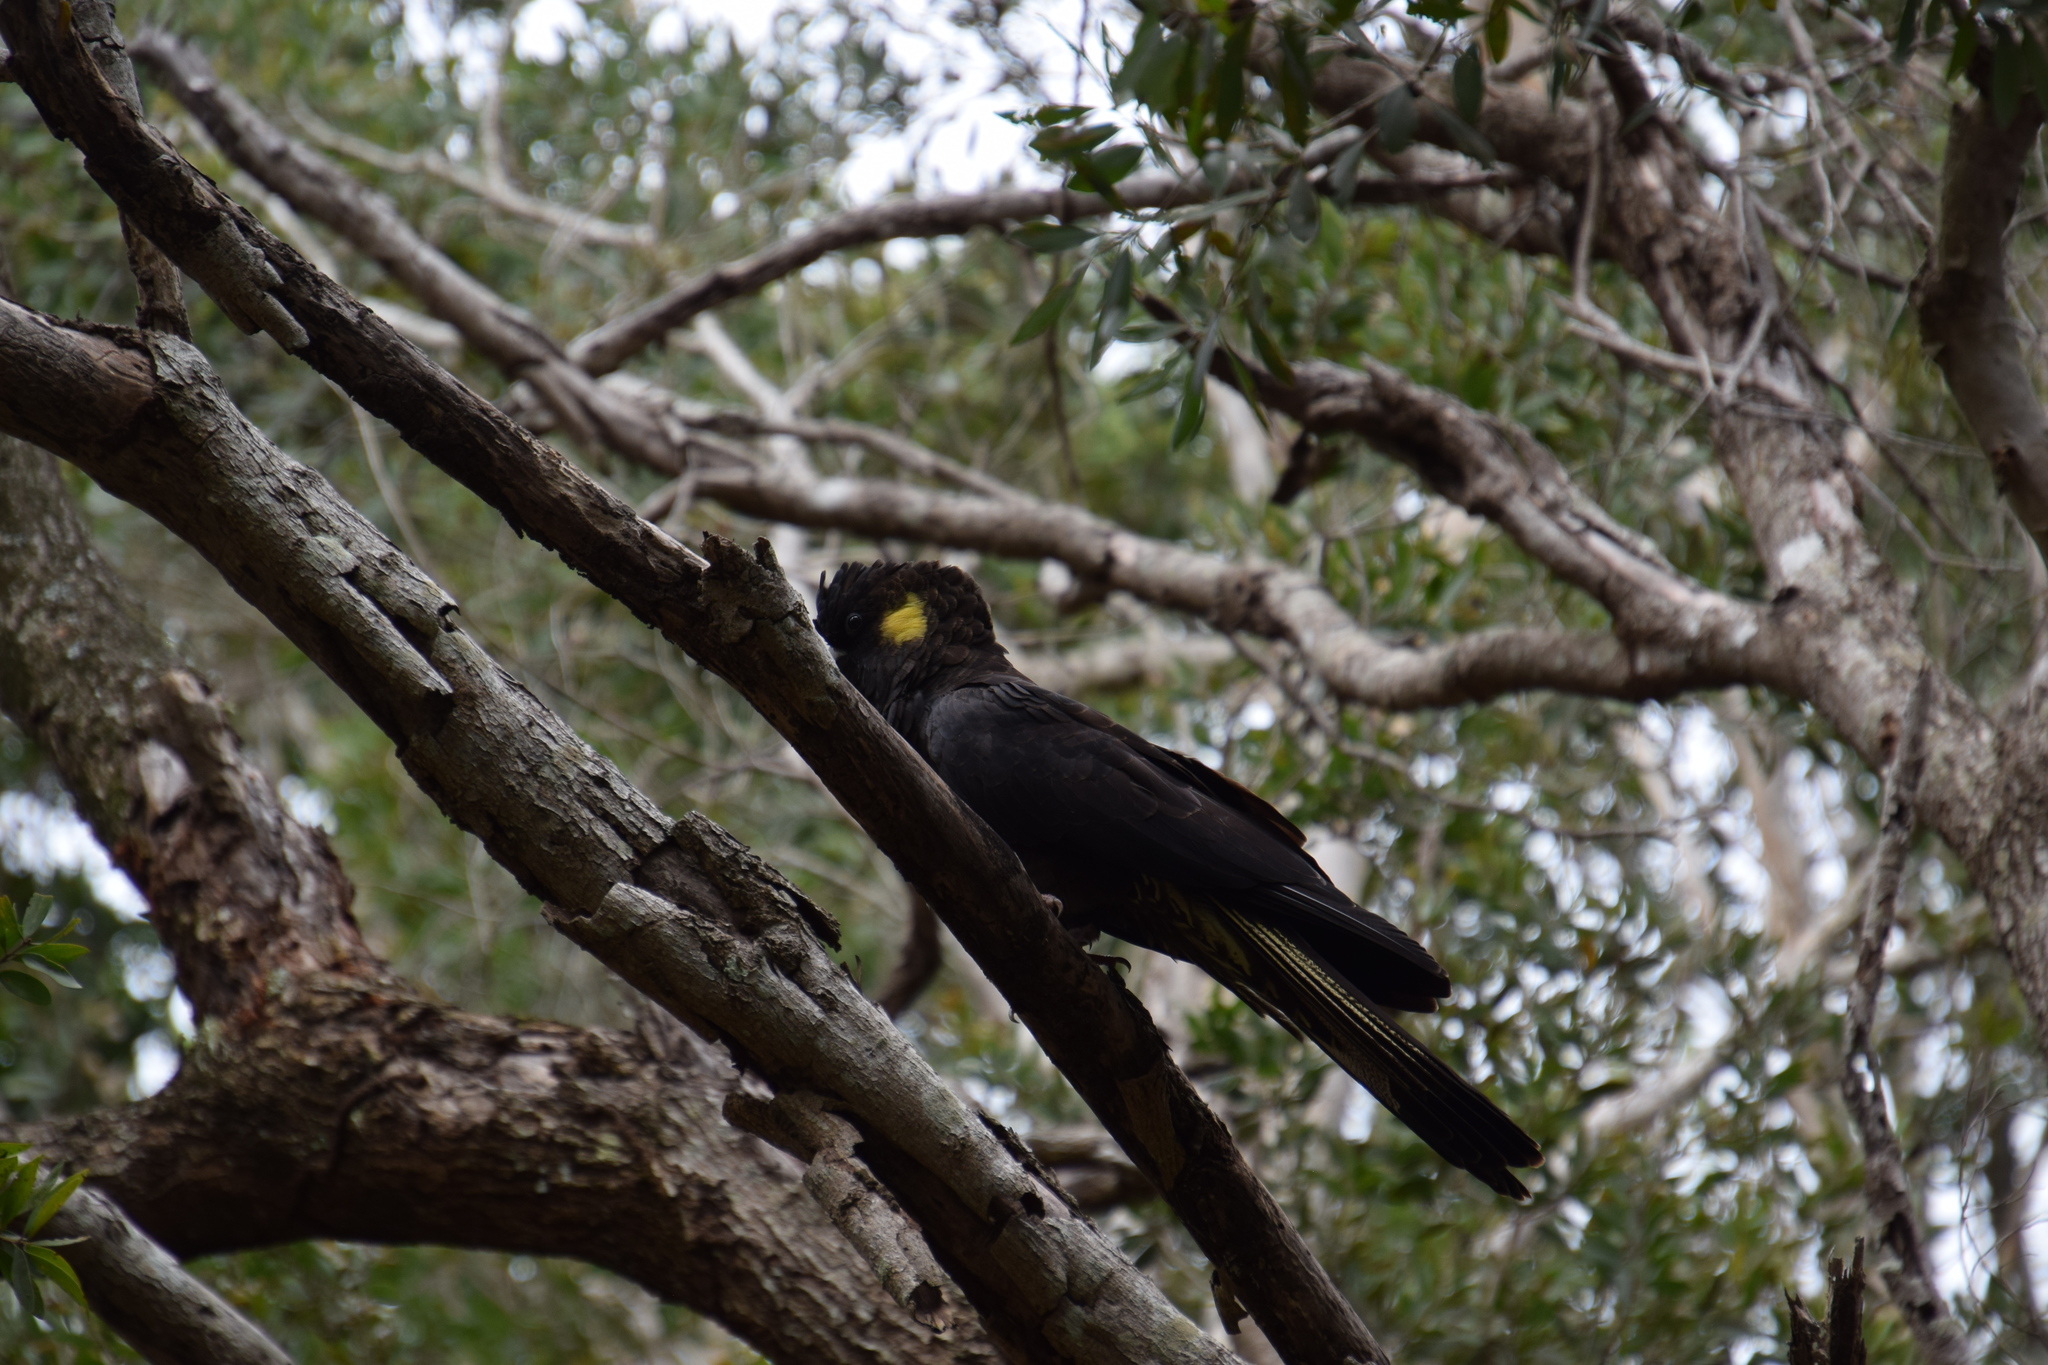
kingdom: Animalia
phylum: Chordata
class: Aves
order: Psittaciformes
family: Cacatuidae
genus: Zanda
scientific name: Zanda funerea
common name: Yellow-tailed black-cockatoo
